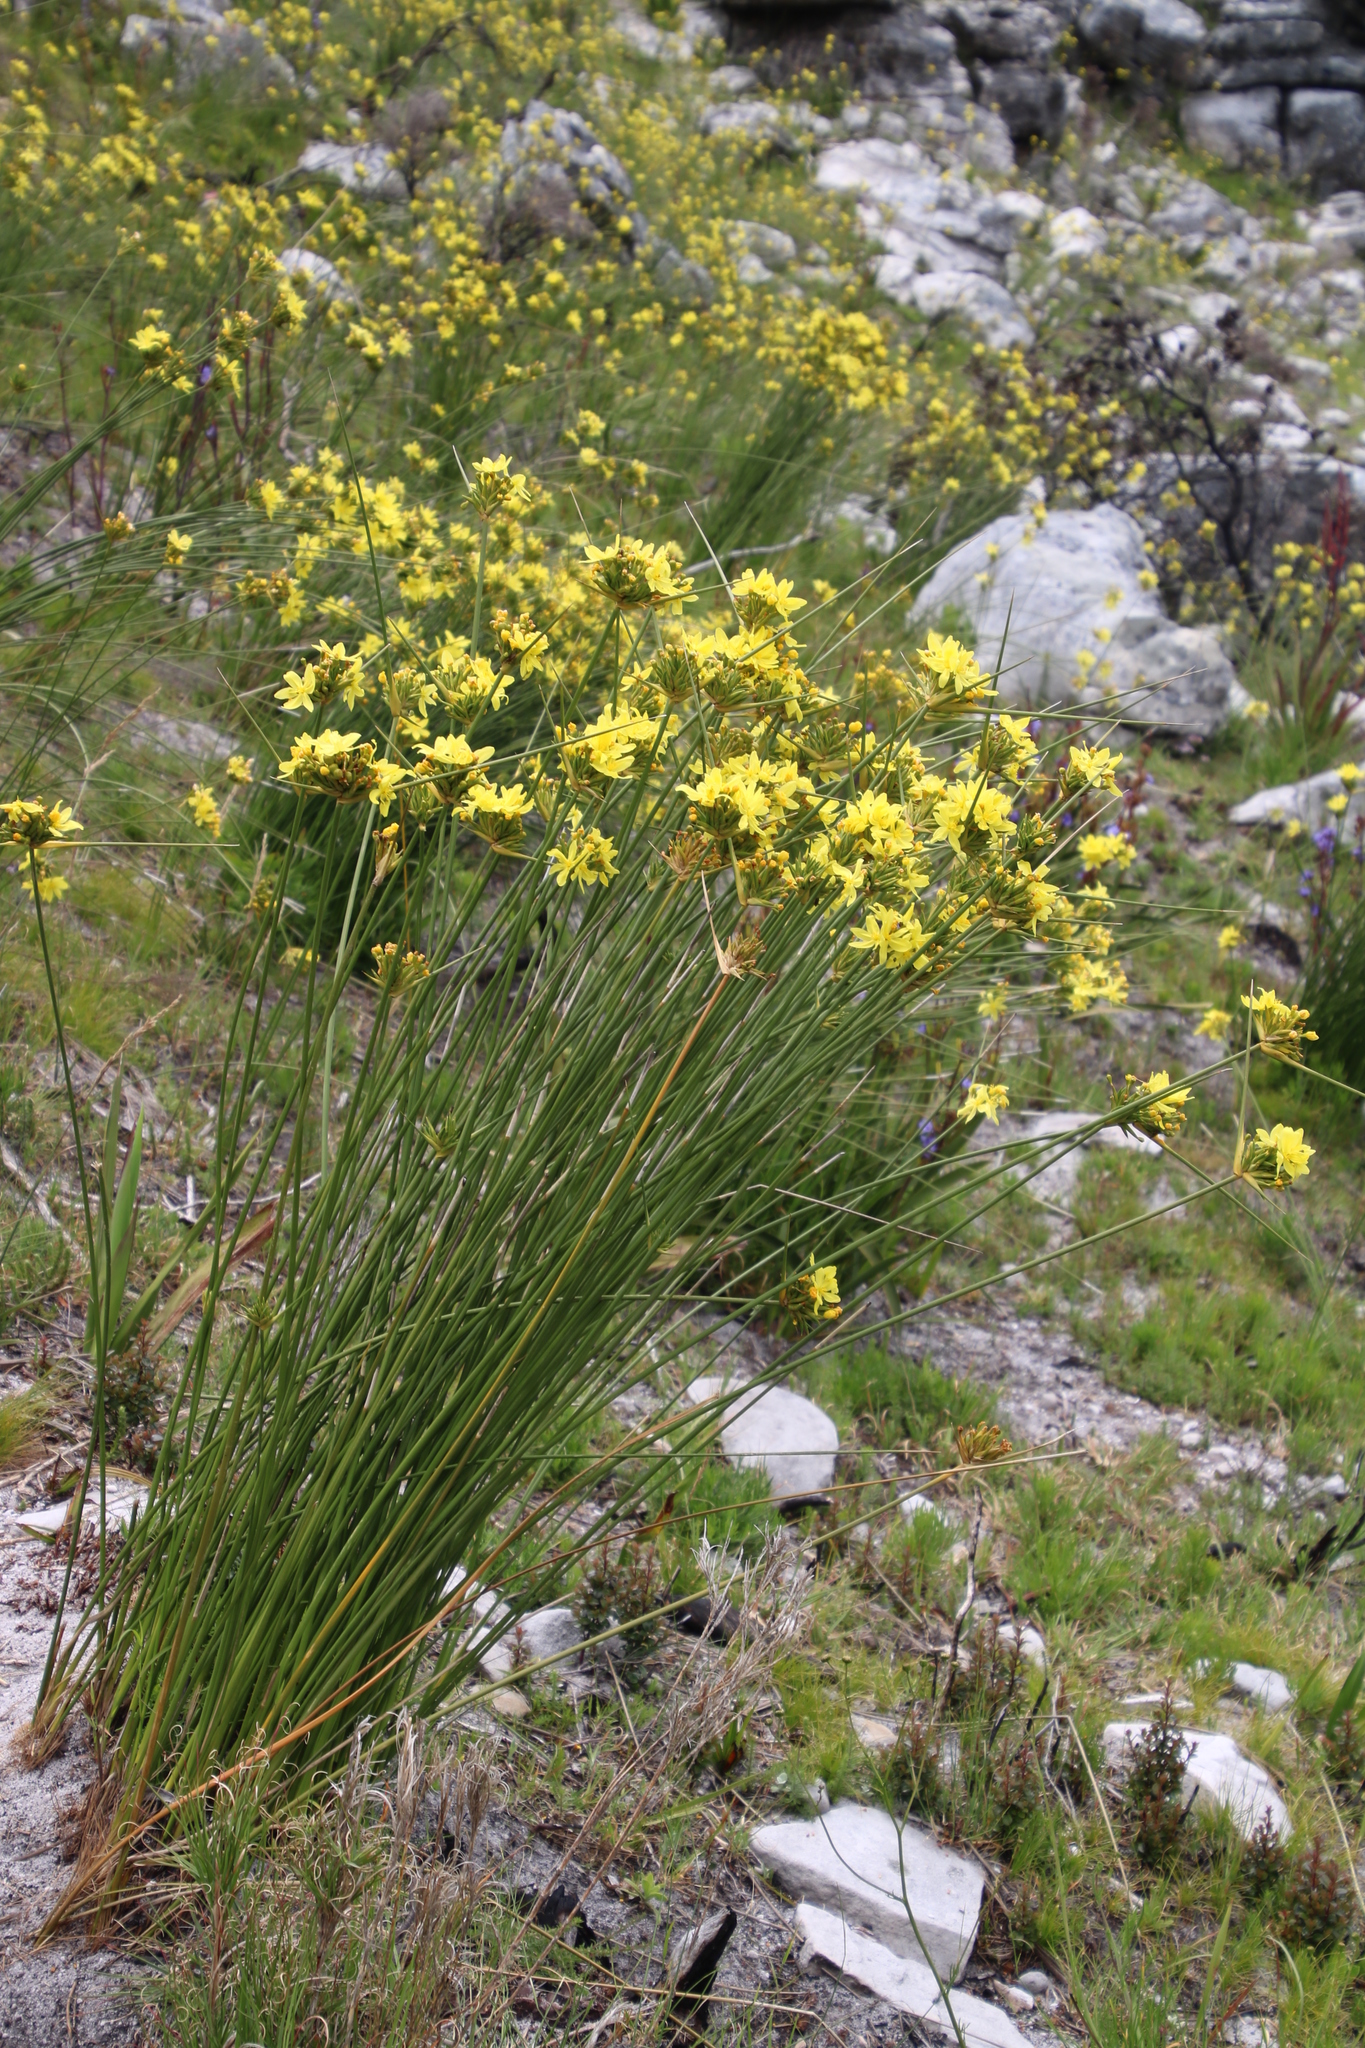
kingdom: Plantae
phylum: Tracheophyta
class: Liliopsida
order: Asparagales
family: Iridaceae
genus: Bobartia
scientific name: Bobartia indica
